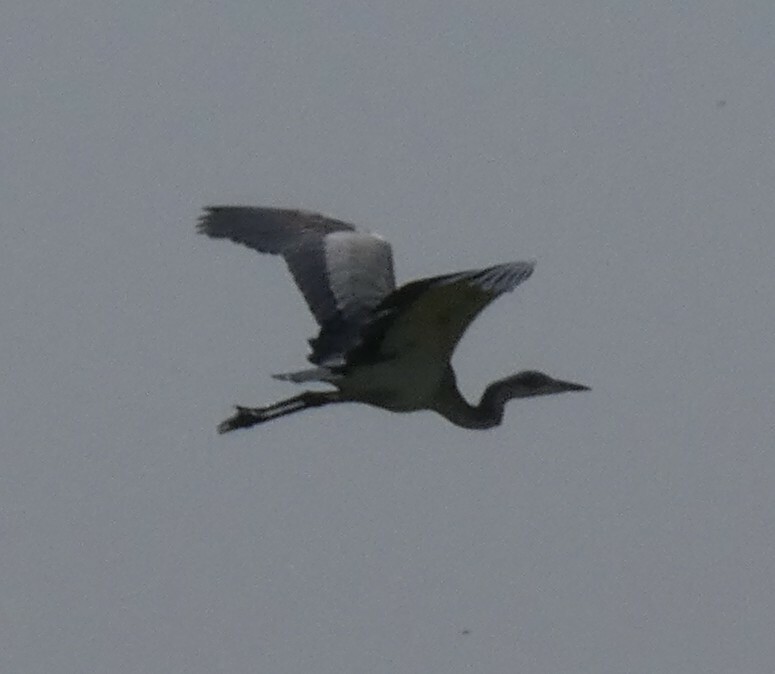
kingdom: Animalia
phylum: Chordata
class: Aves
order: Pelecaniformes
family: Ardeidae
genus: Ardea
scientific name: Ardea melanocephala
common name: Black-headed heron
